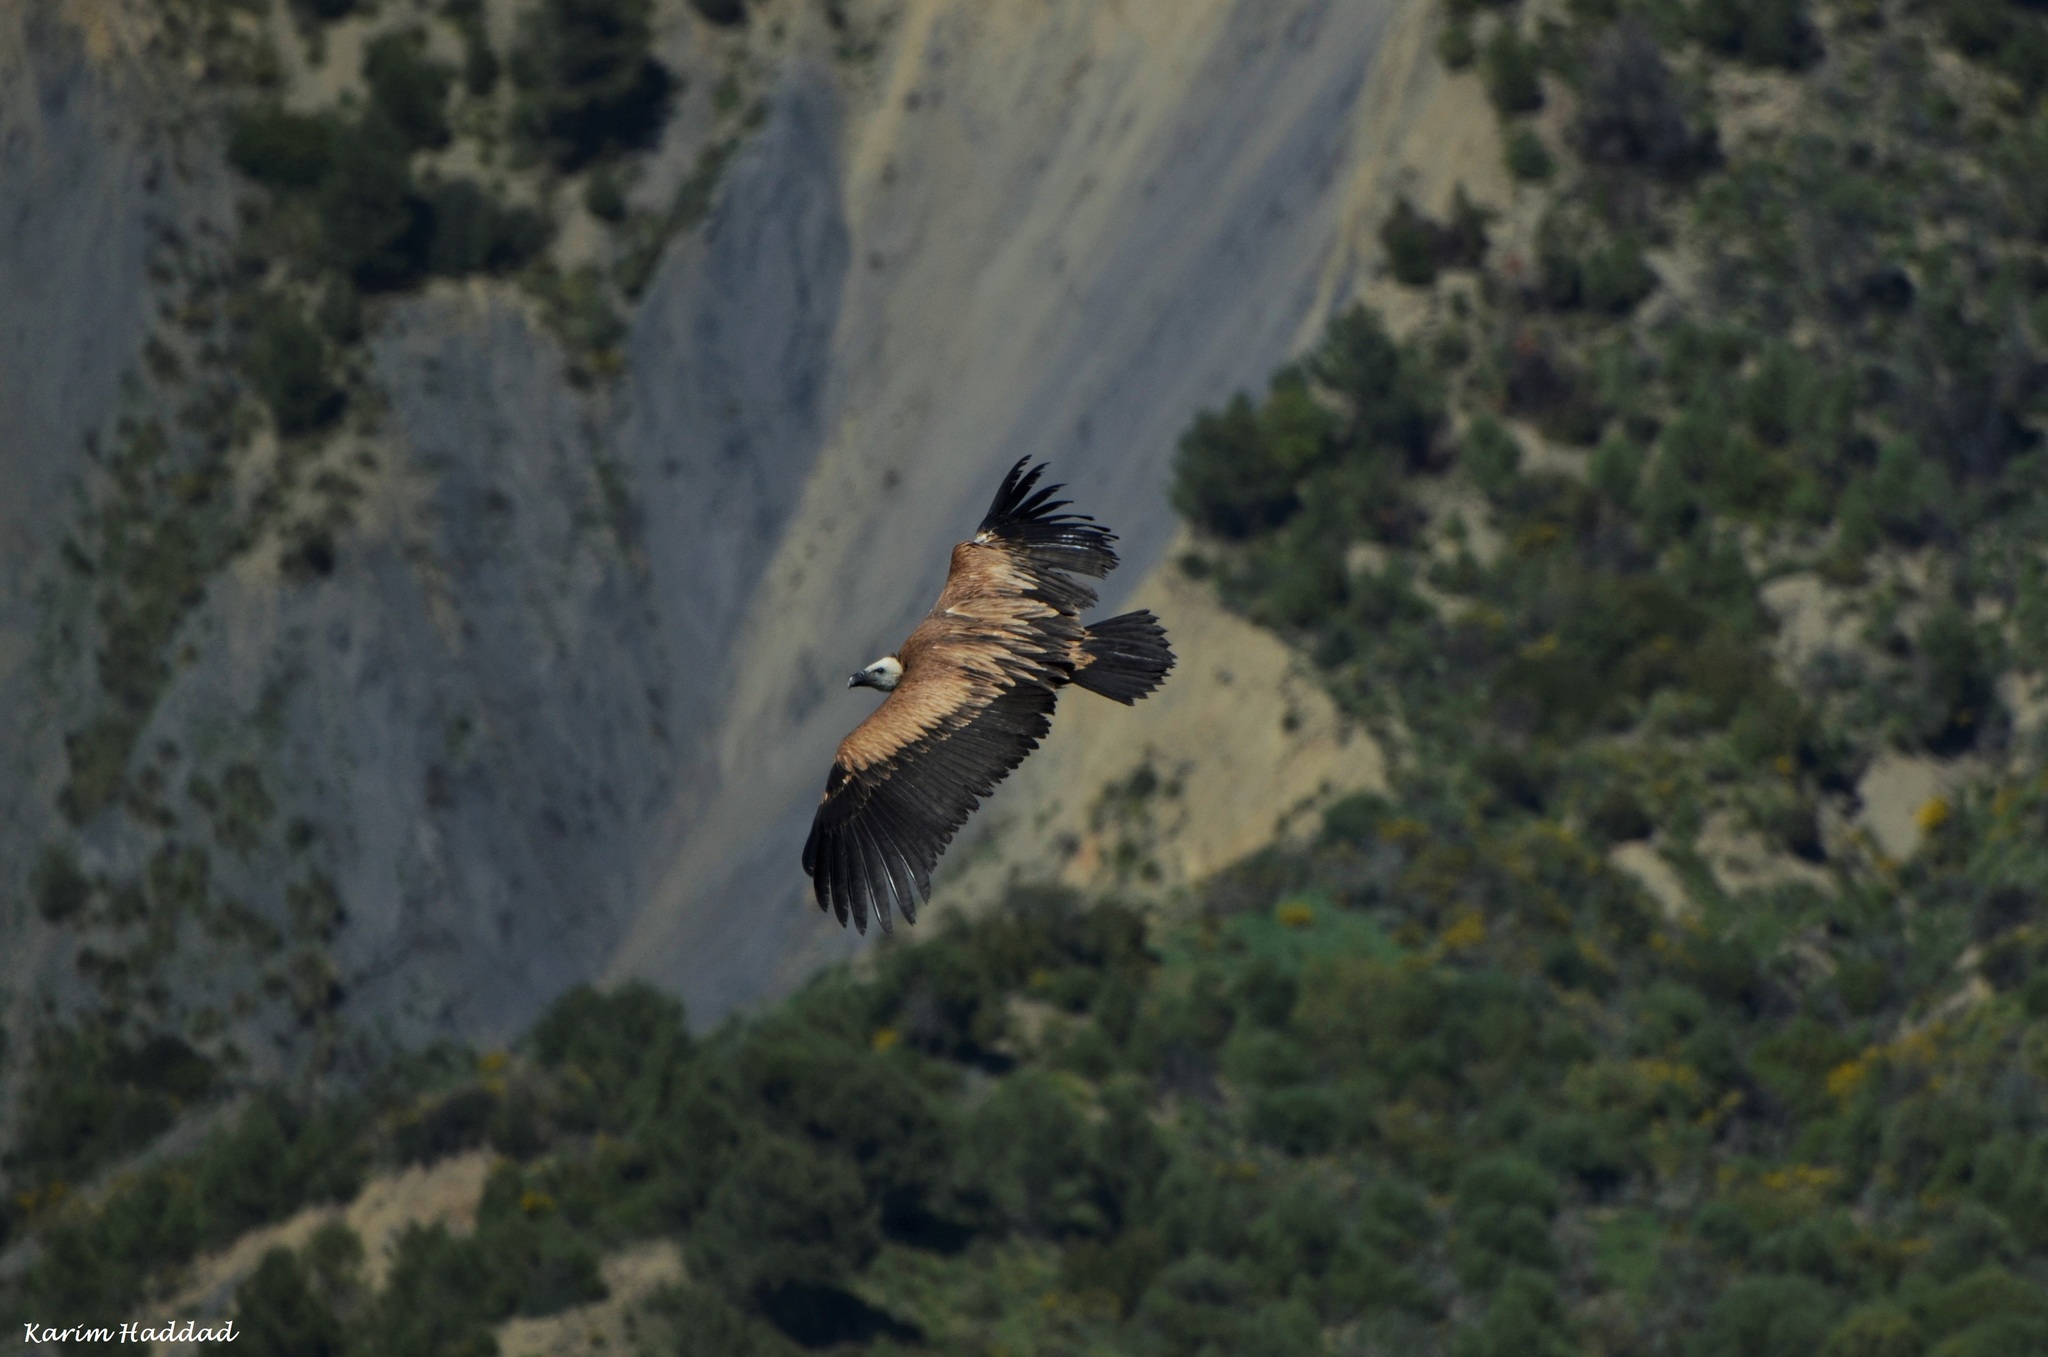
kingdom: Animalia
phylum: Chordata
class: Aves
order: Accipitriformes
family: Accipitridae
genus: Gyps
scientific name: Gyps fulvus
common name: Griffon vulture
